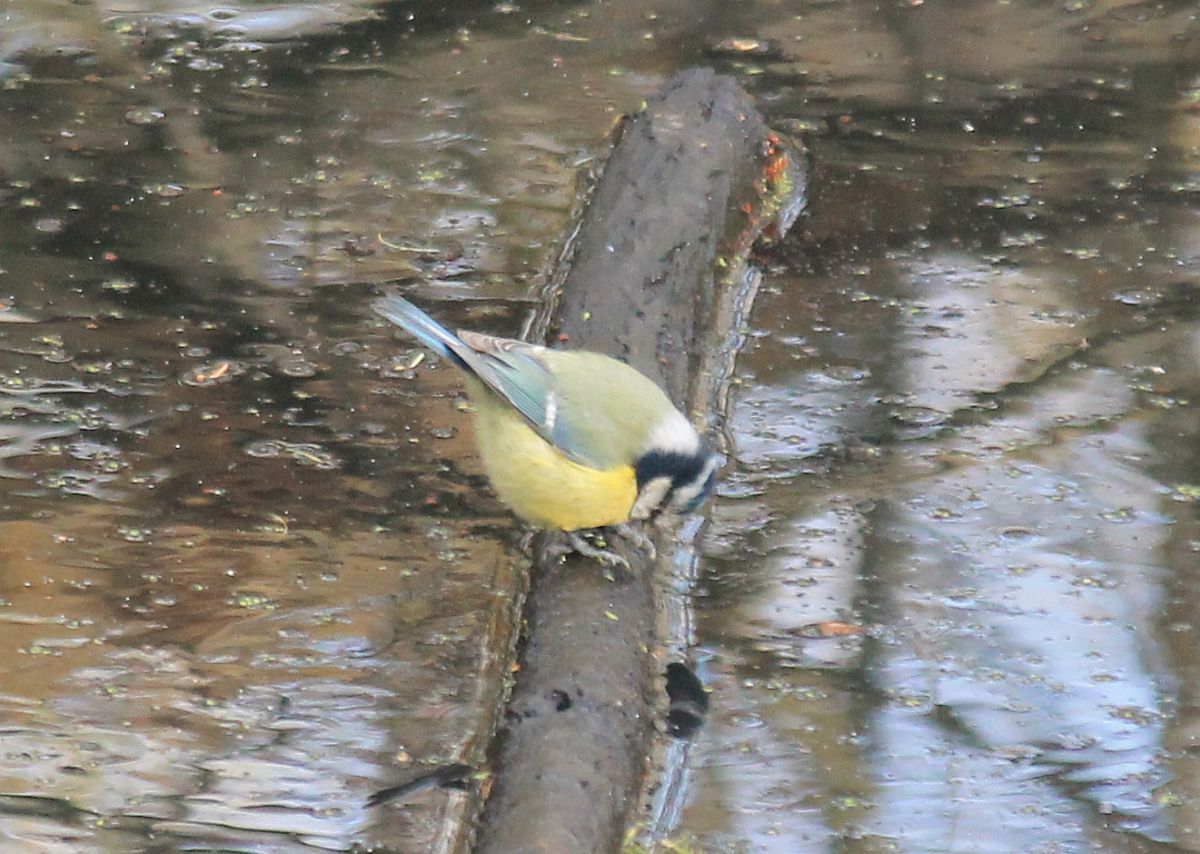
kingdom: Animalia
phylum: Chordata
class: Aves
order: Passeriformes
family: Paridae
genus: Cyanistes
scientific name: Cyanistes caeruleus
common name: Eurasian blue tit
